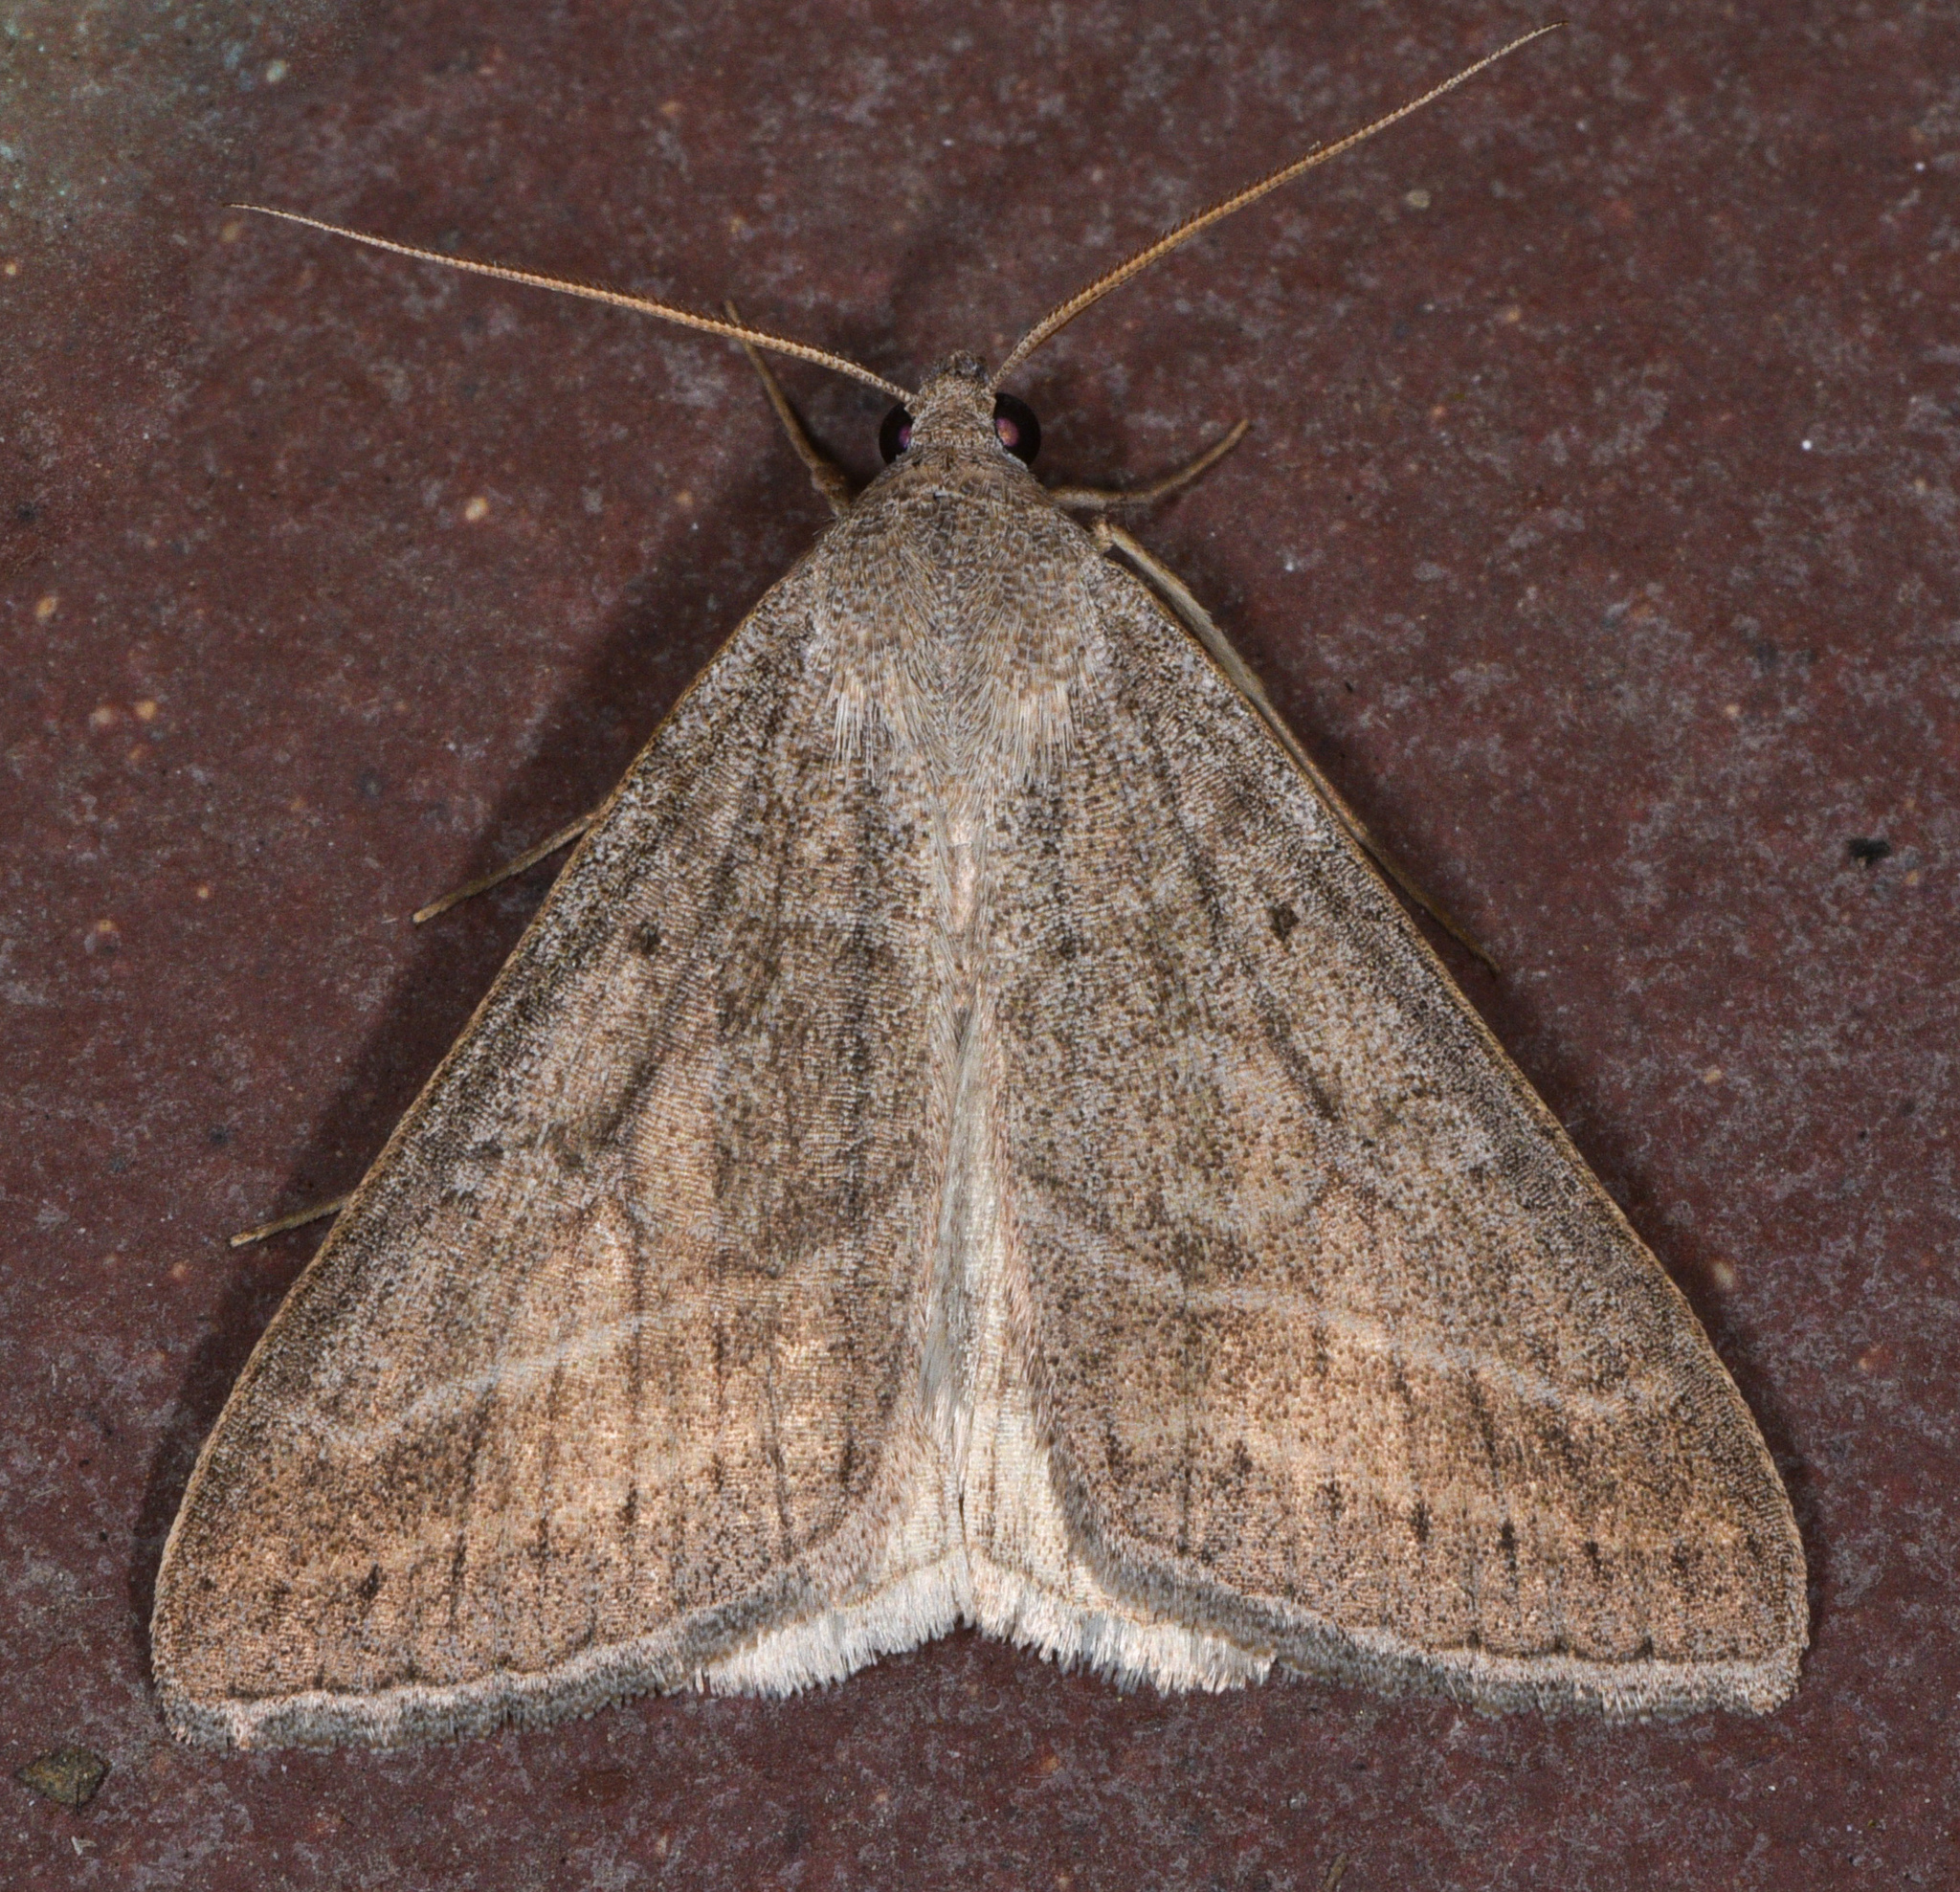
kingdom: Animalia
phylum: Arthropoda
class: Insecta
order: Lepidoptera
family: Erebidae
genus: Caenurgia
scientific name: Caenurgia togataria
